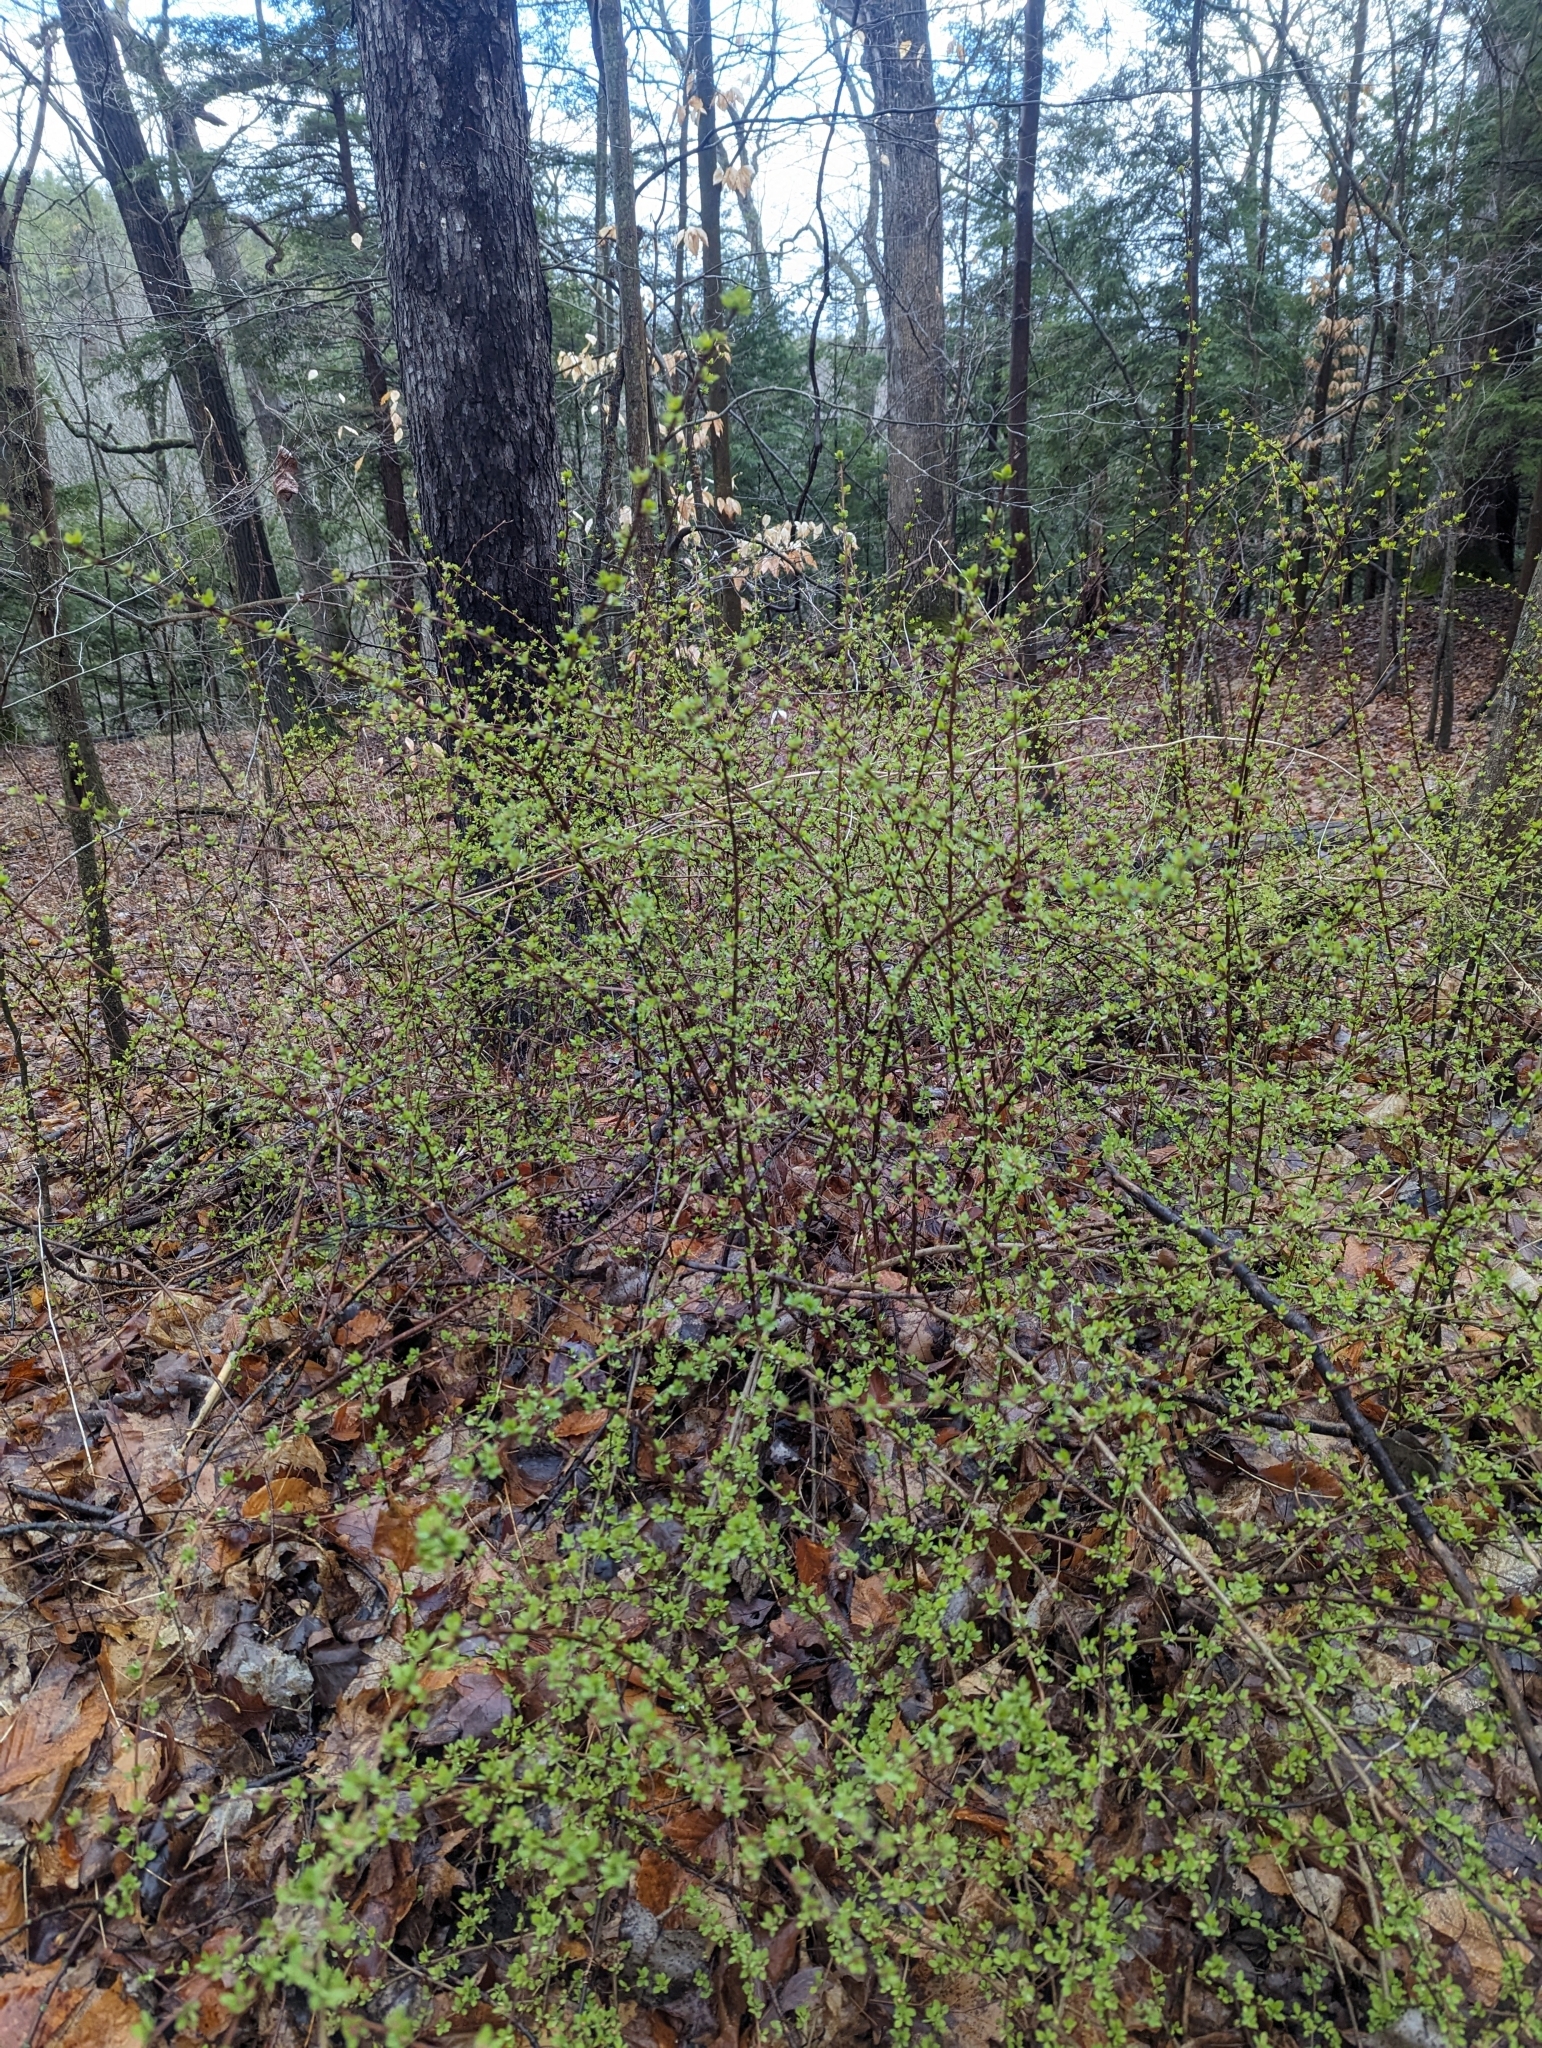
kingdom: Plantae
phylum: Tracheophyta
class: Magnoliopsida
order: Ranunculales
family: Berberidaceae
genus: Berberis
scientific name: Berberis thunbergii
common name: Japanese barberry
